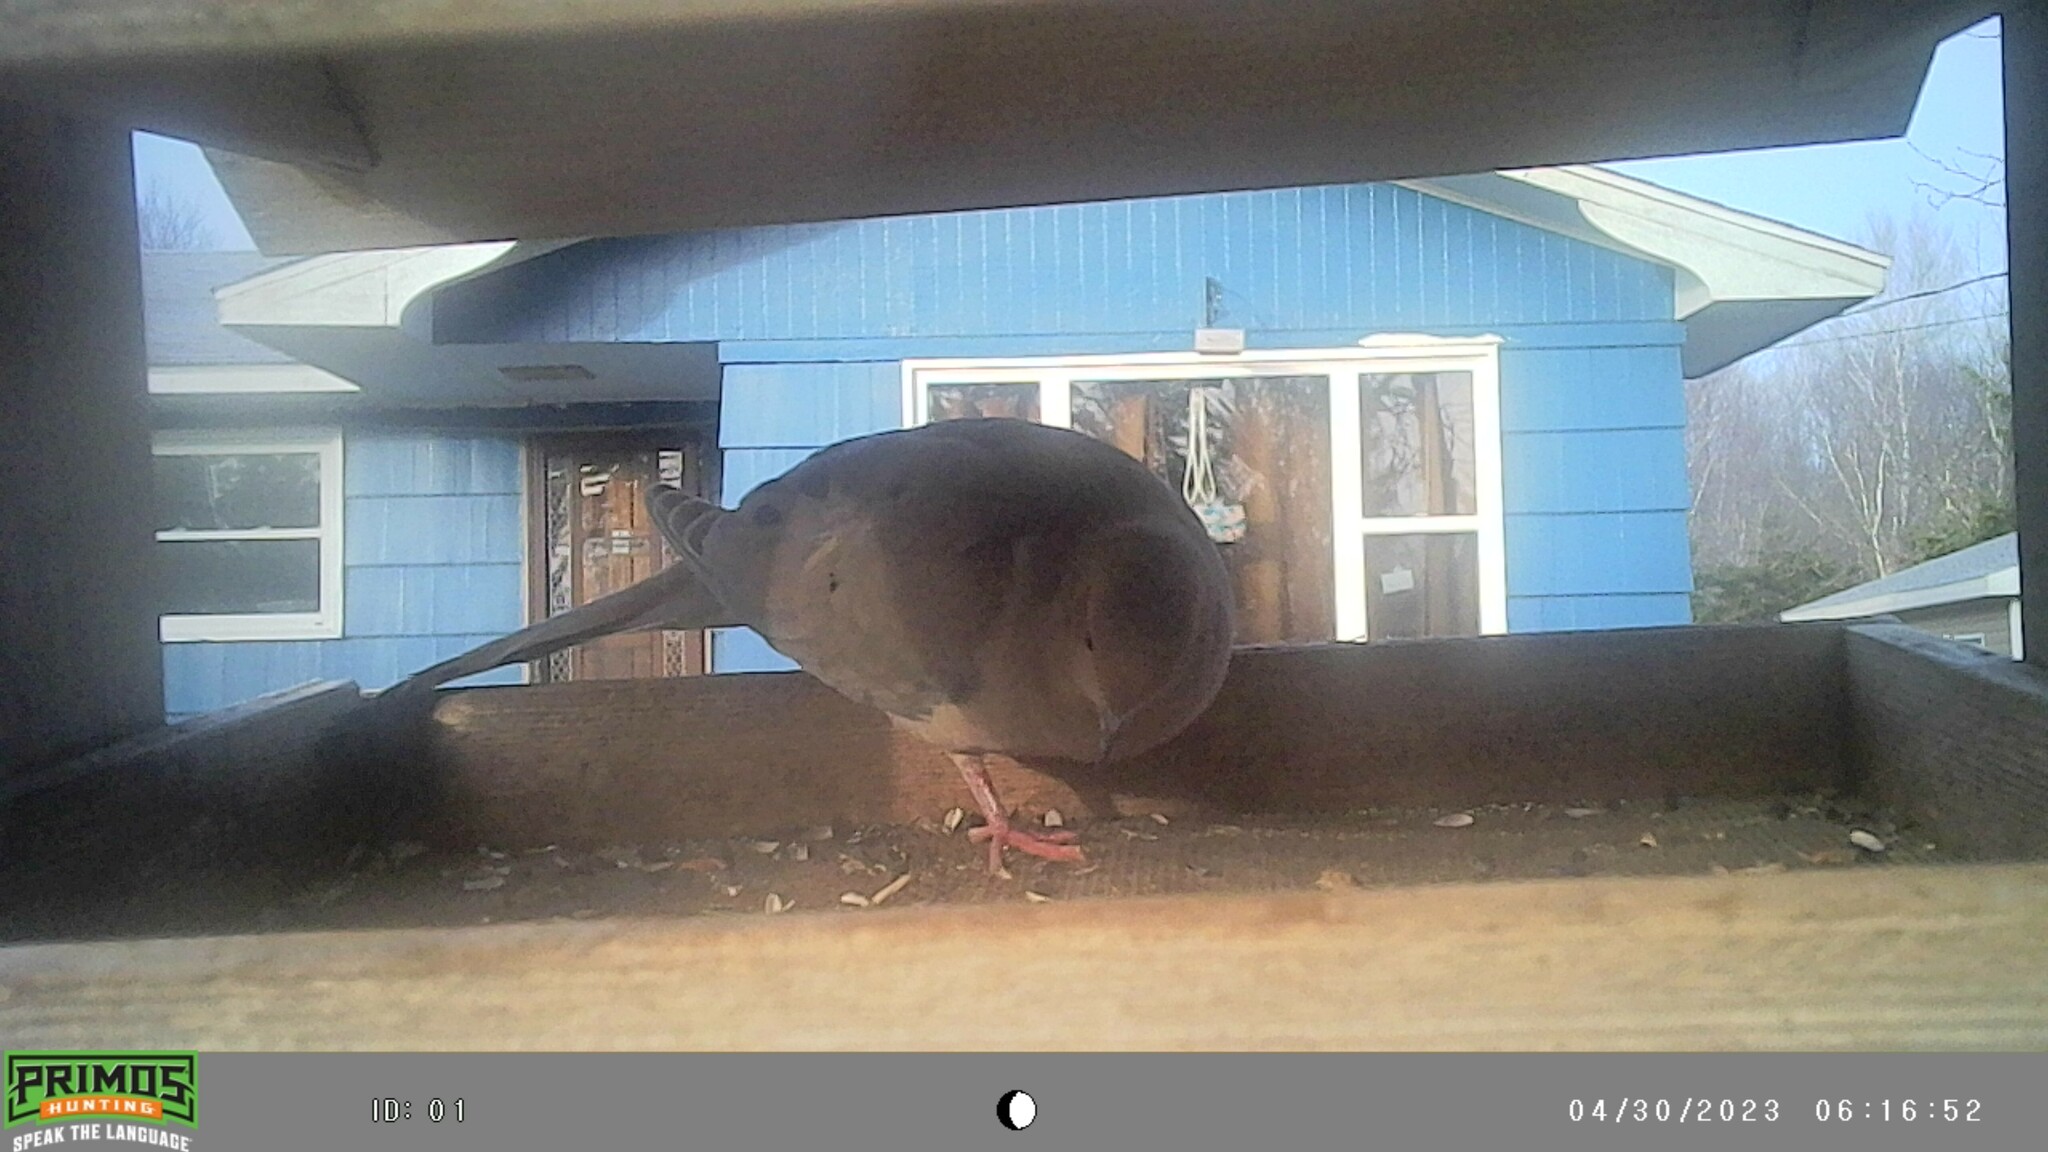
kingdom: Animalia
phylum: Chordata
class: Aves
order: Columbiformes
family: Columbidae
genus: Zenaida
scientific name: Zenaida macroura
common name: Mourning dove
